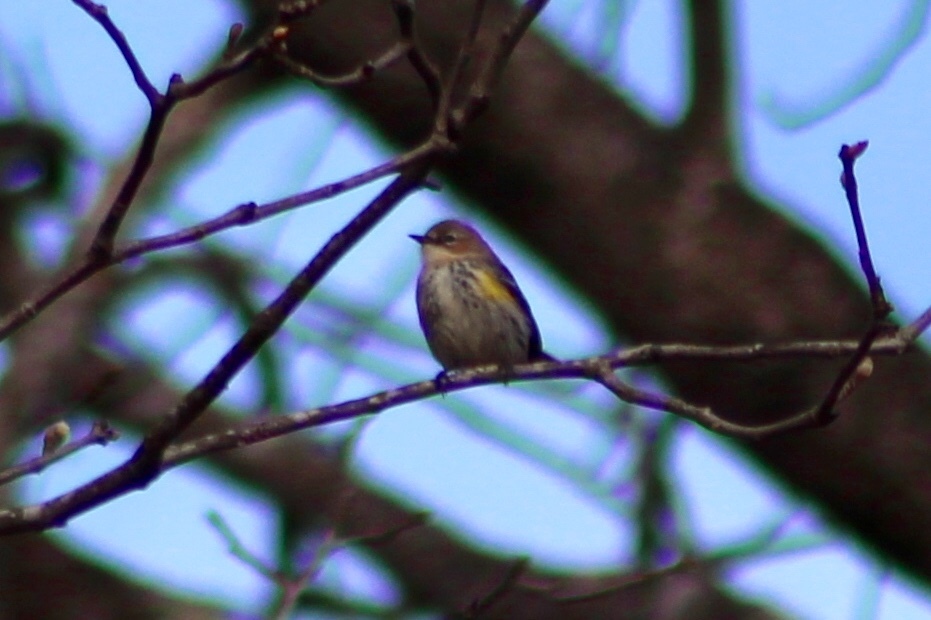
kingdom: Animalia
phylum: Chordata
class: Aves
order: Passeriformes
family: Parulidae
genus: Setophaga
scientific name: Setophaga coronata
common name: Myrtle warbler
